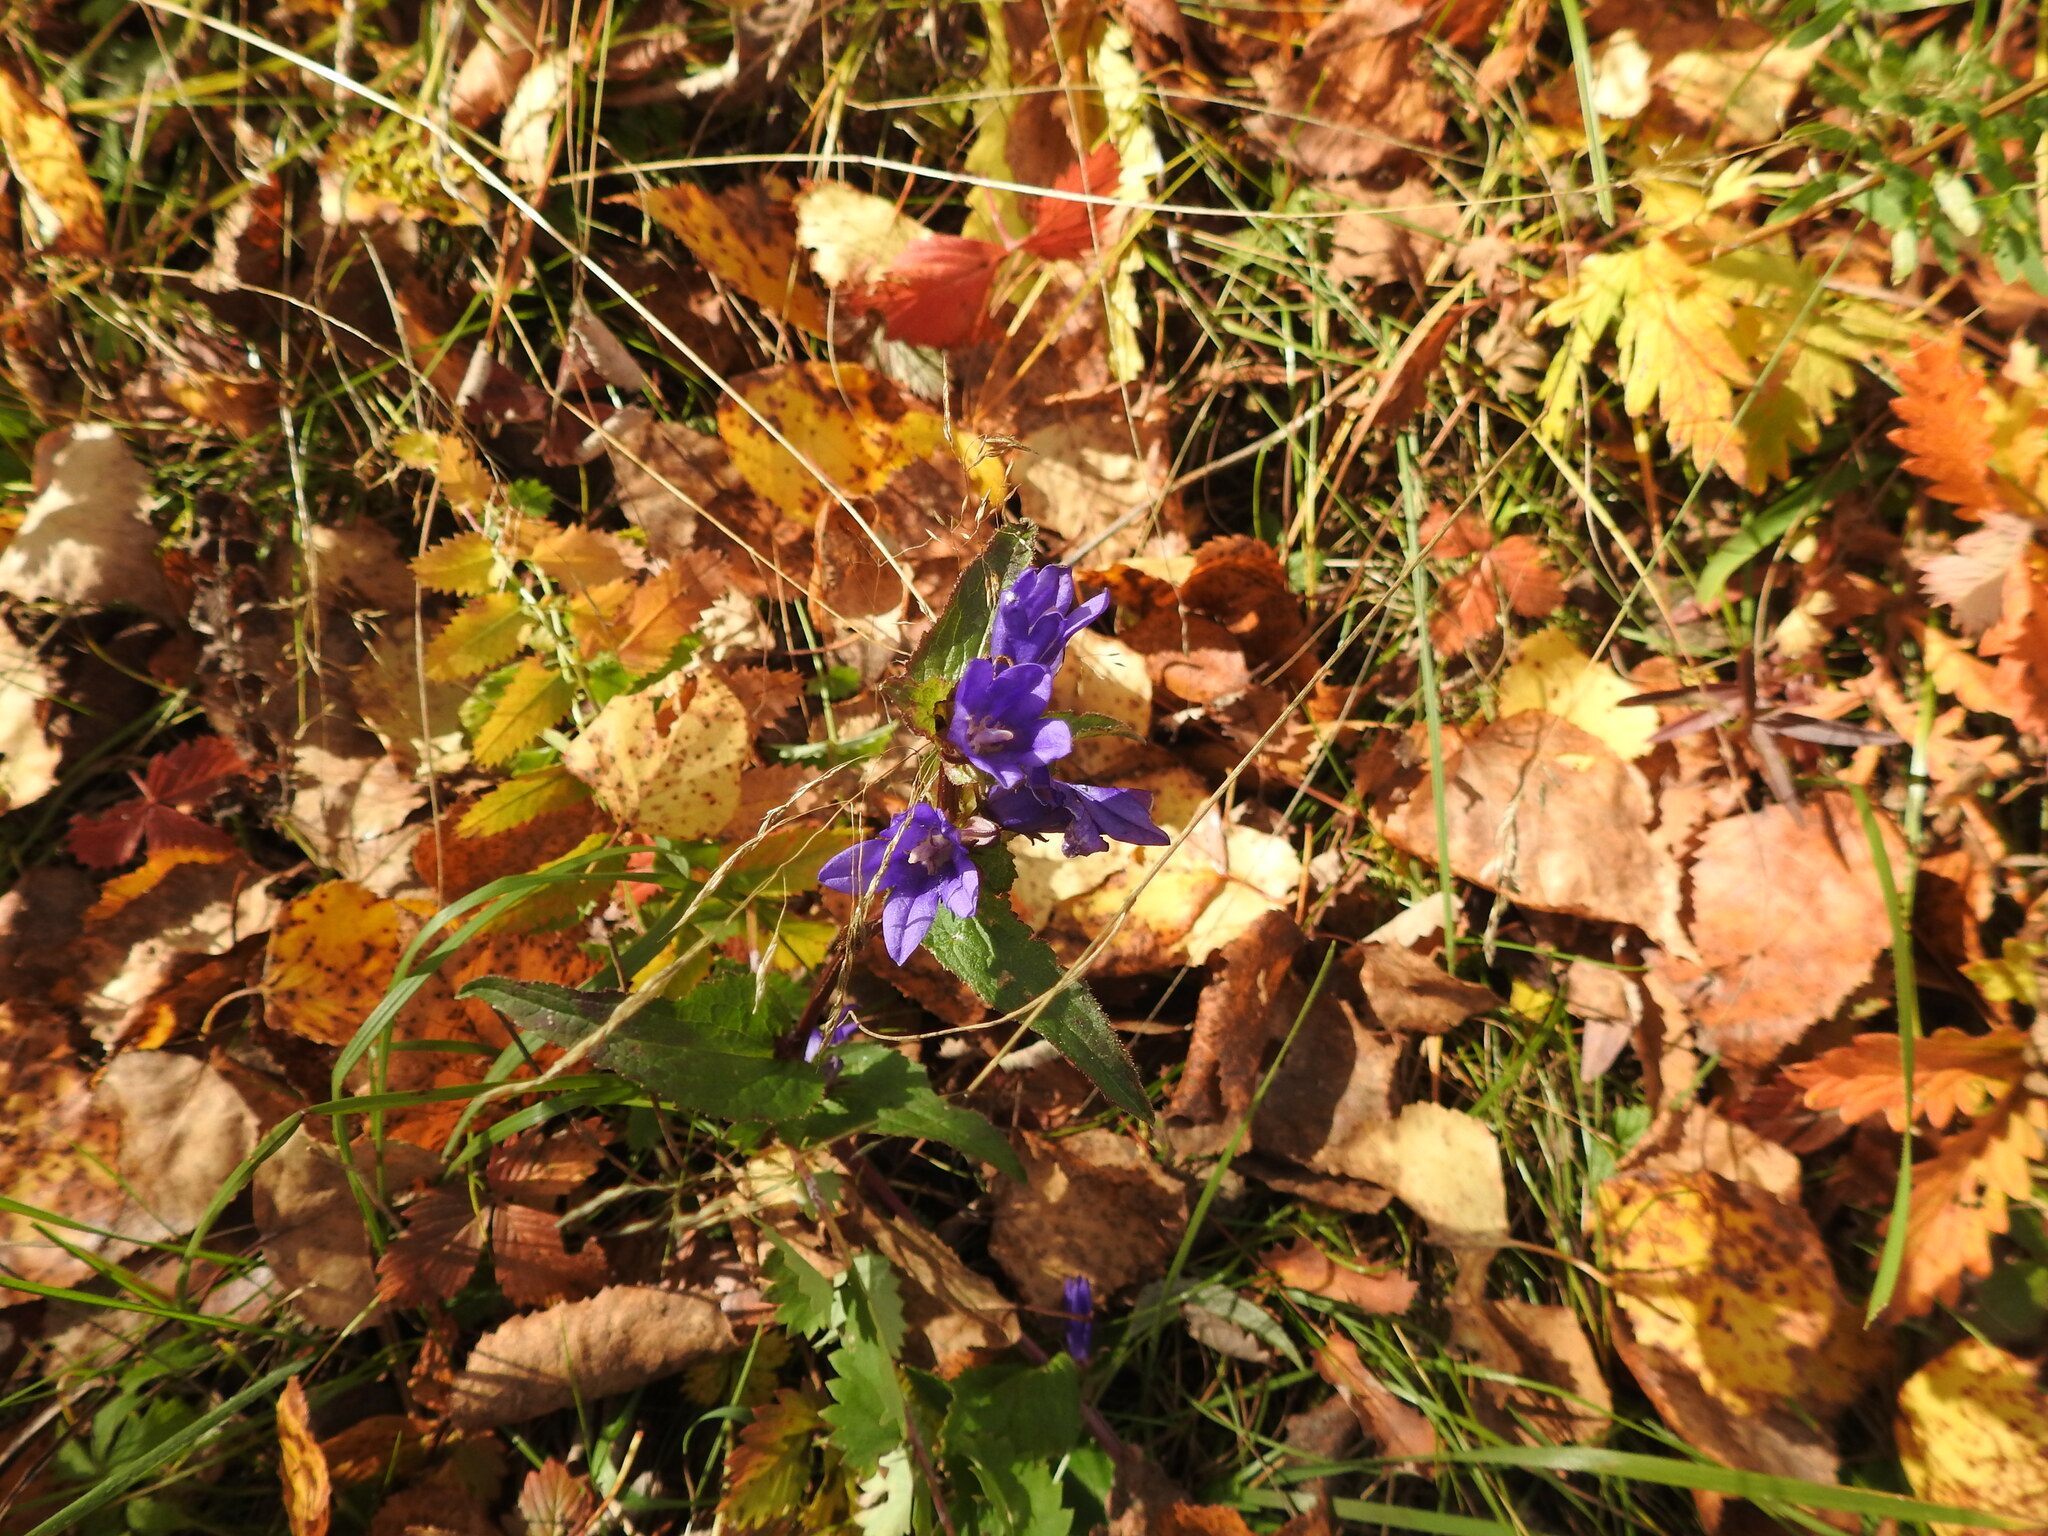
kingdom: Plantae
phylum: Tracheophyta
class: Magnoliopsida
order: Asterales
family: Campanulaceae
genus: Campanula
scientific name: Campanula glomerata
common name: Clustered bellflower
